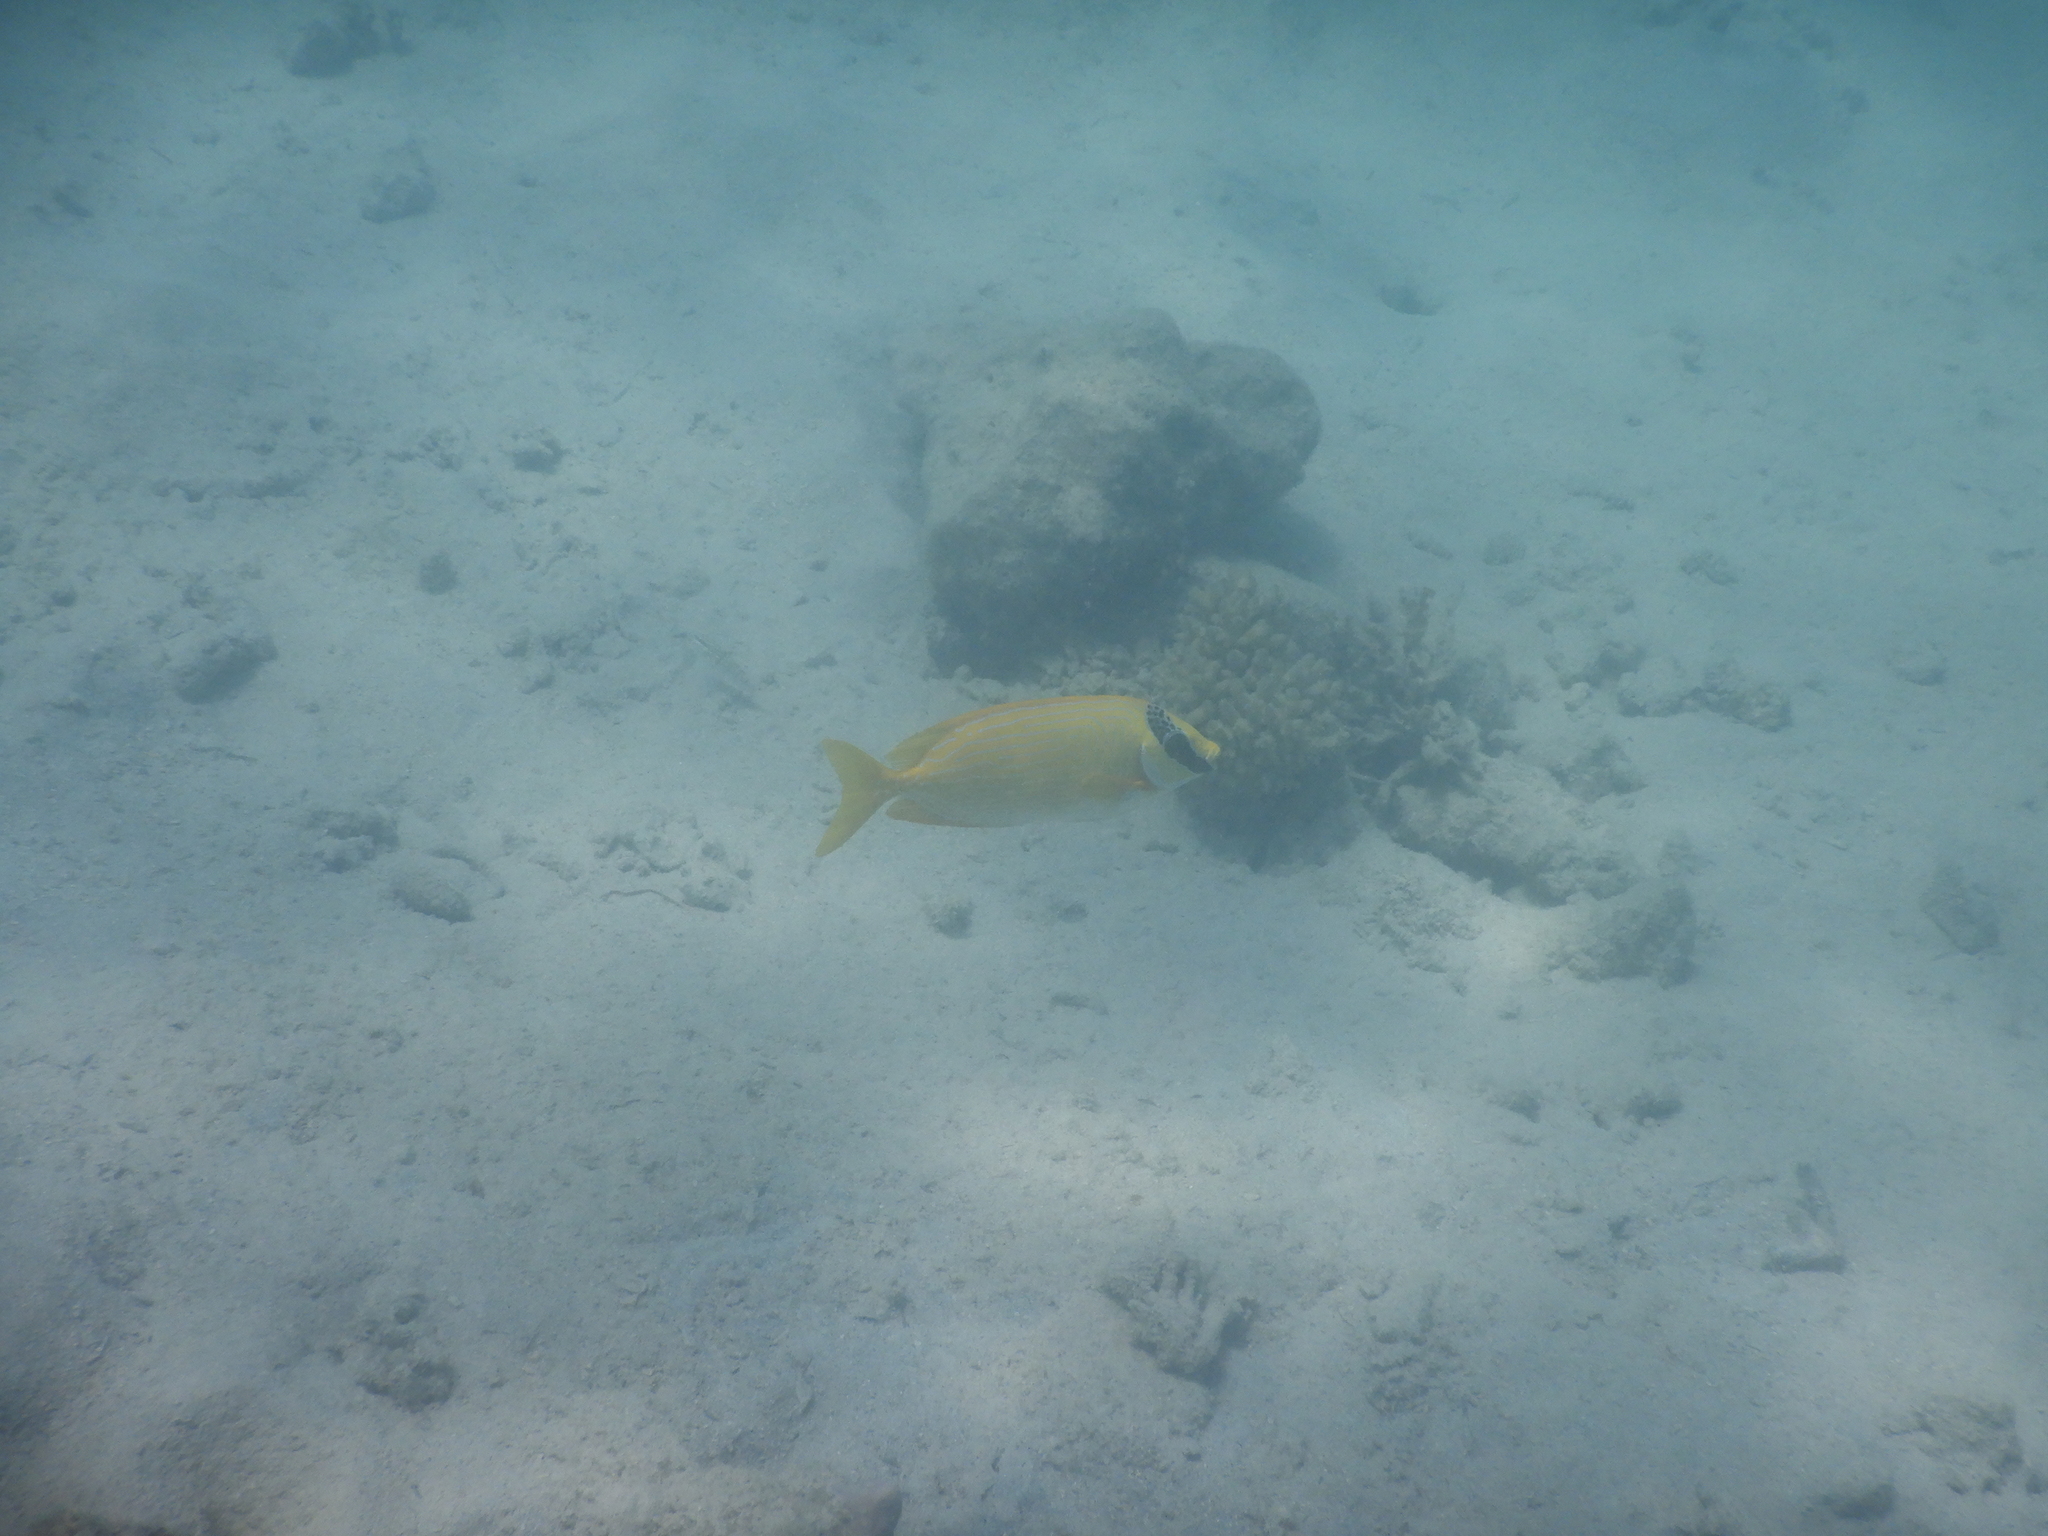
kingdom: Animalia
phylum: Chordata
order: Perciformes
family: Siganidae
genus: Siganus
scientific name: Siganus puellus
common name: Masked rabbitfish
